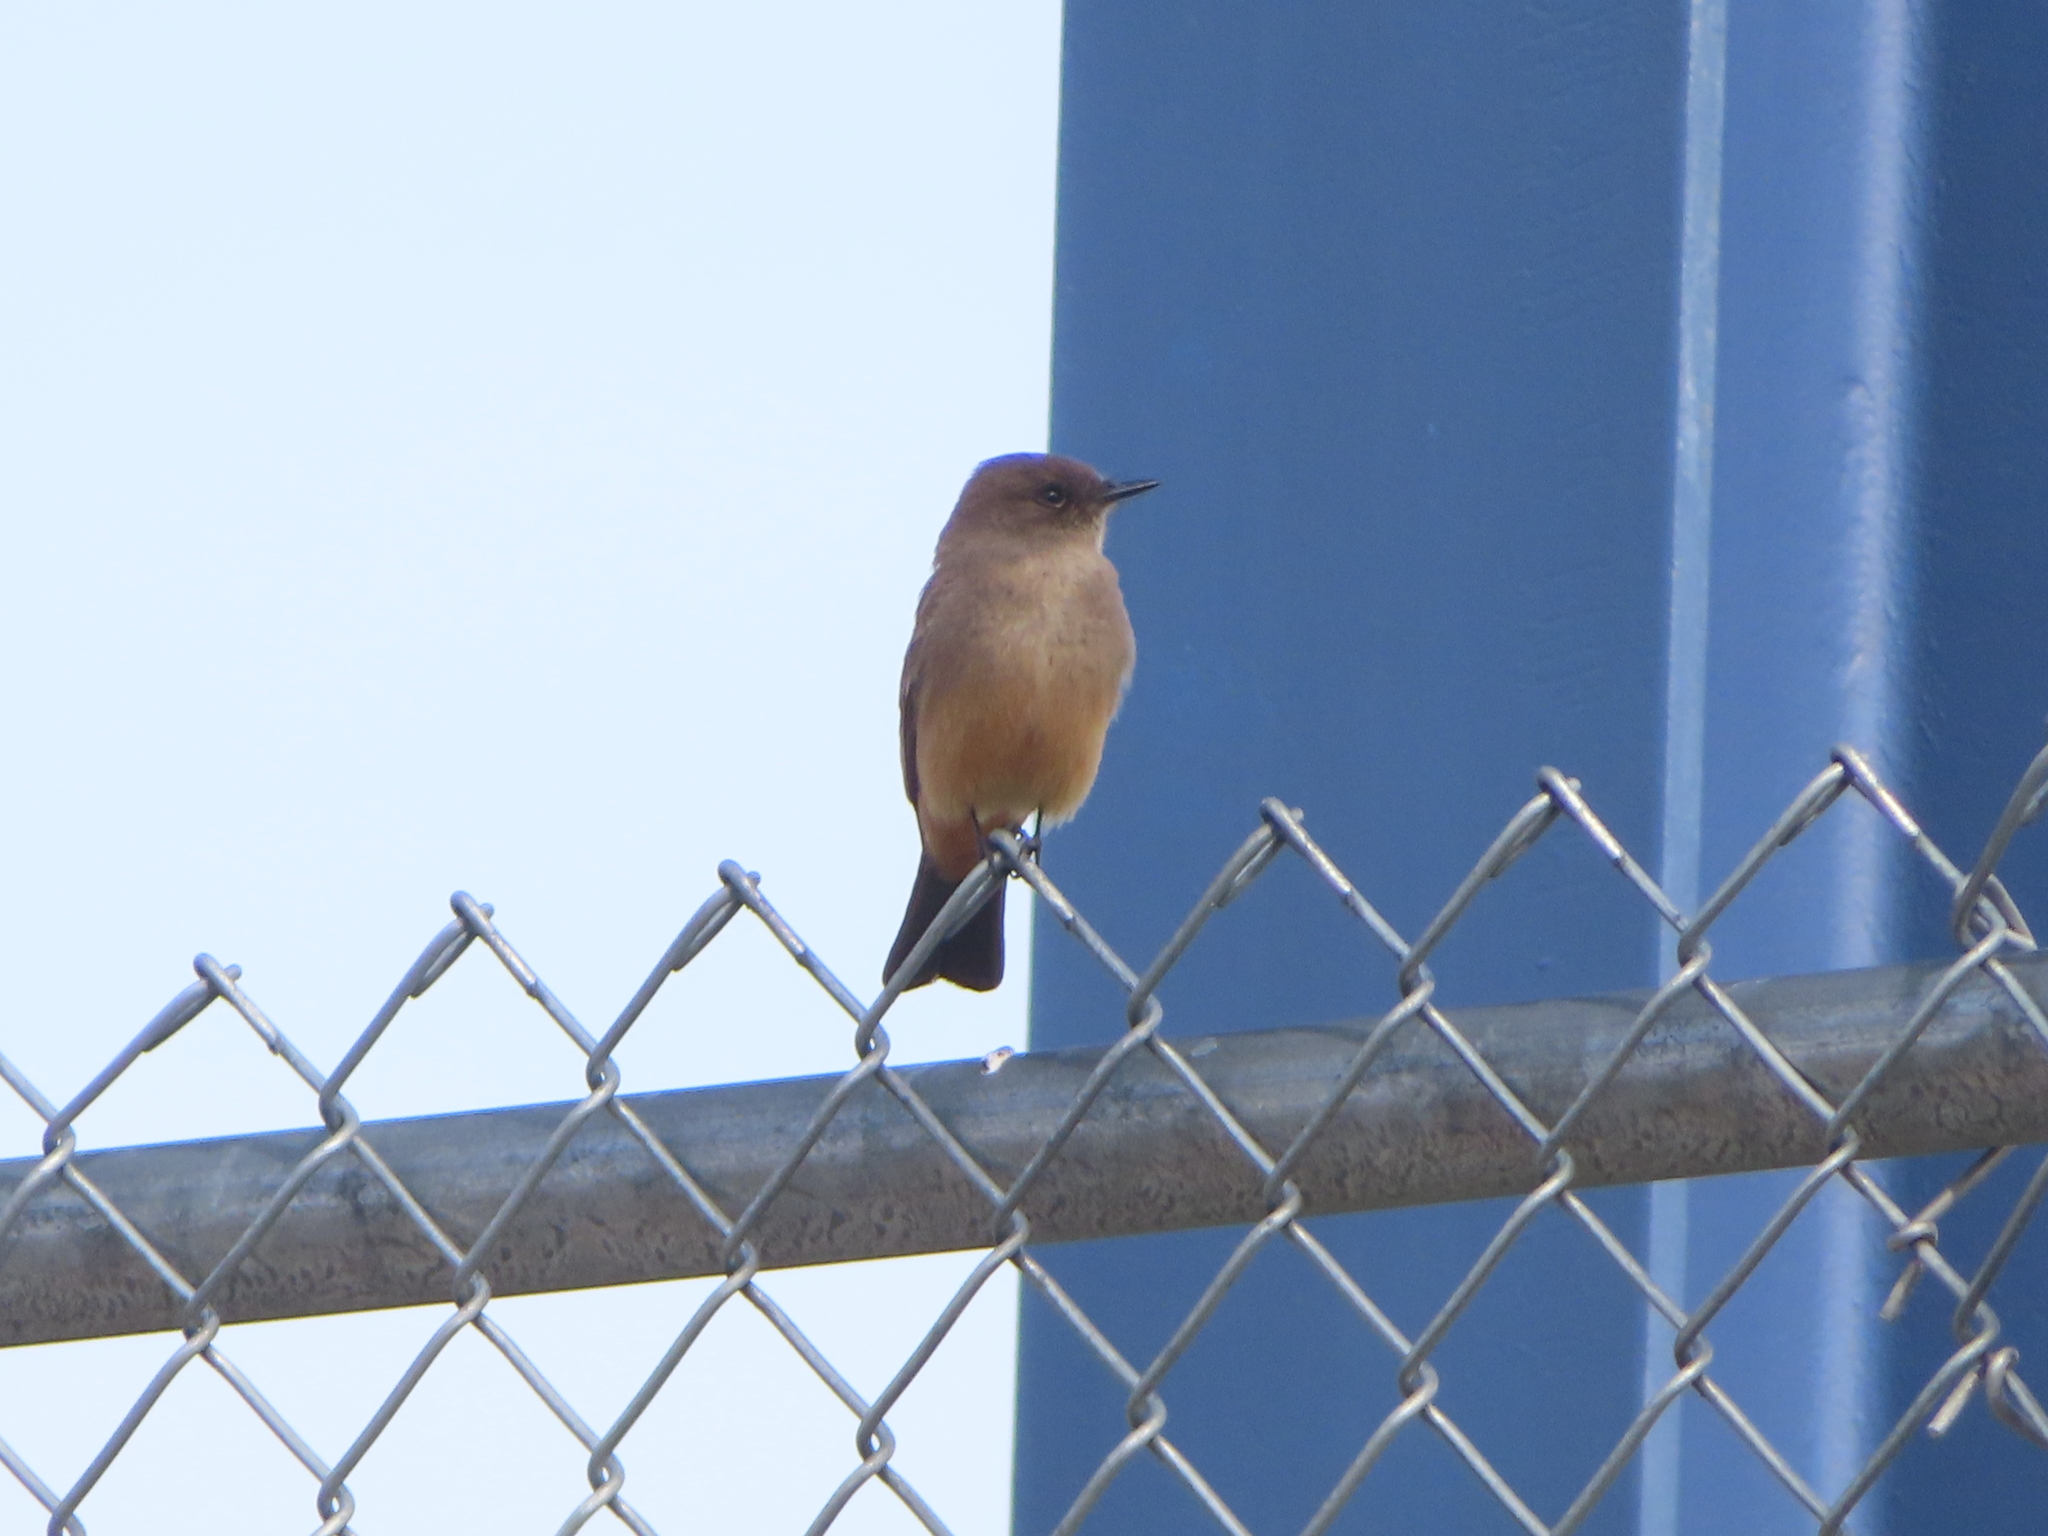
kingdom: Animalia
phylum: Chordata
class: Aves
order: Passeriformes
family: Tyrannidae
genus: Sayornis
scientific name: Sayornis saya
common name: Say's phoebe
